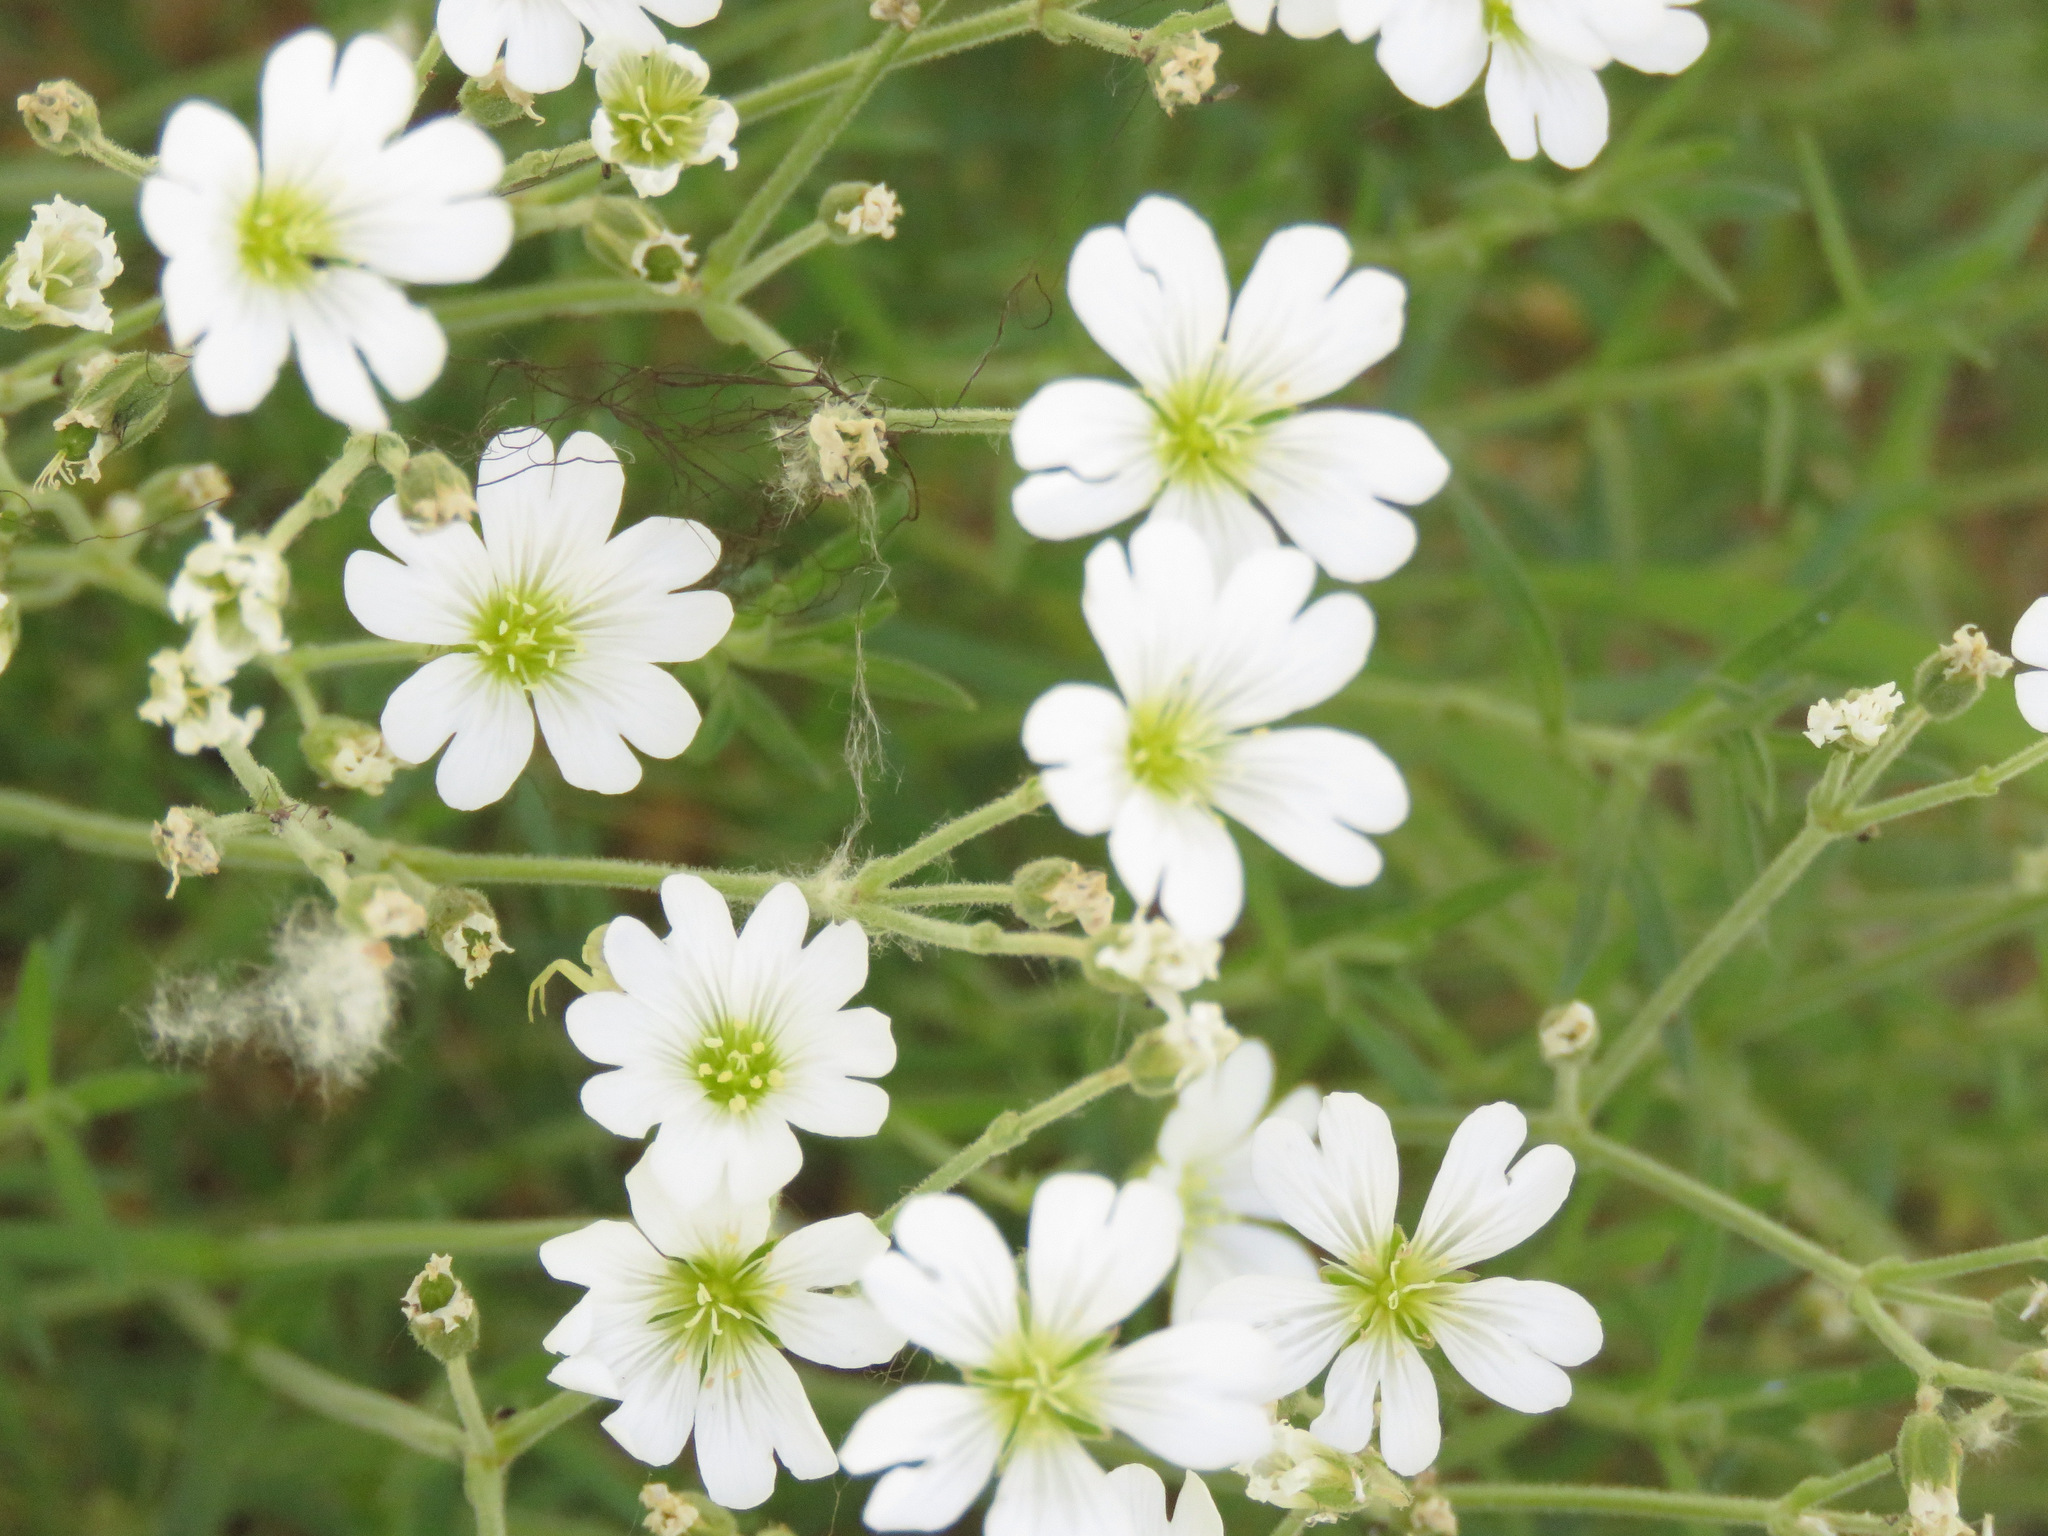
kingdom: Plantae
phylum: Tracheophyta
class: Magnoliopsida
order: Caryophyllales
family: Caryophyllaceae
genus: Cerastium
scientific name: Cerastium arvense
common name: Field mouse-ear
